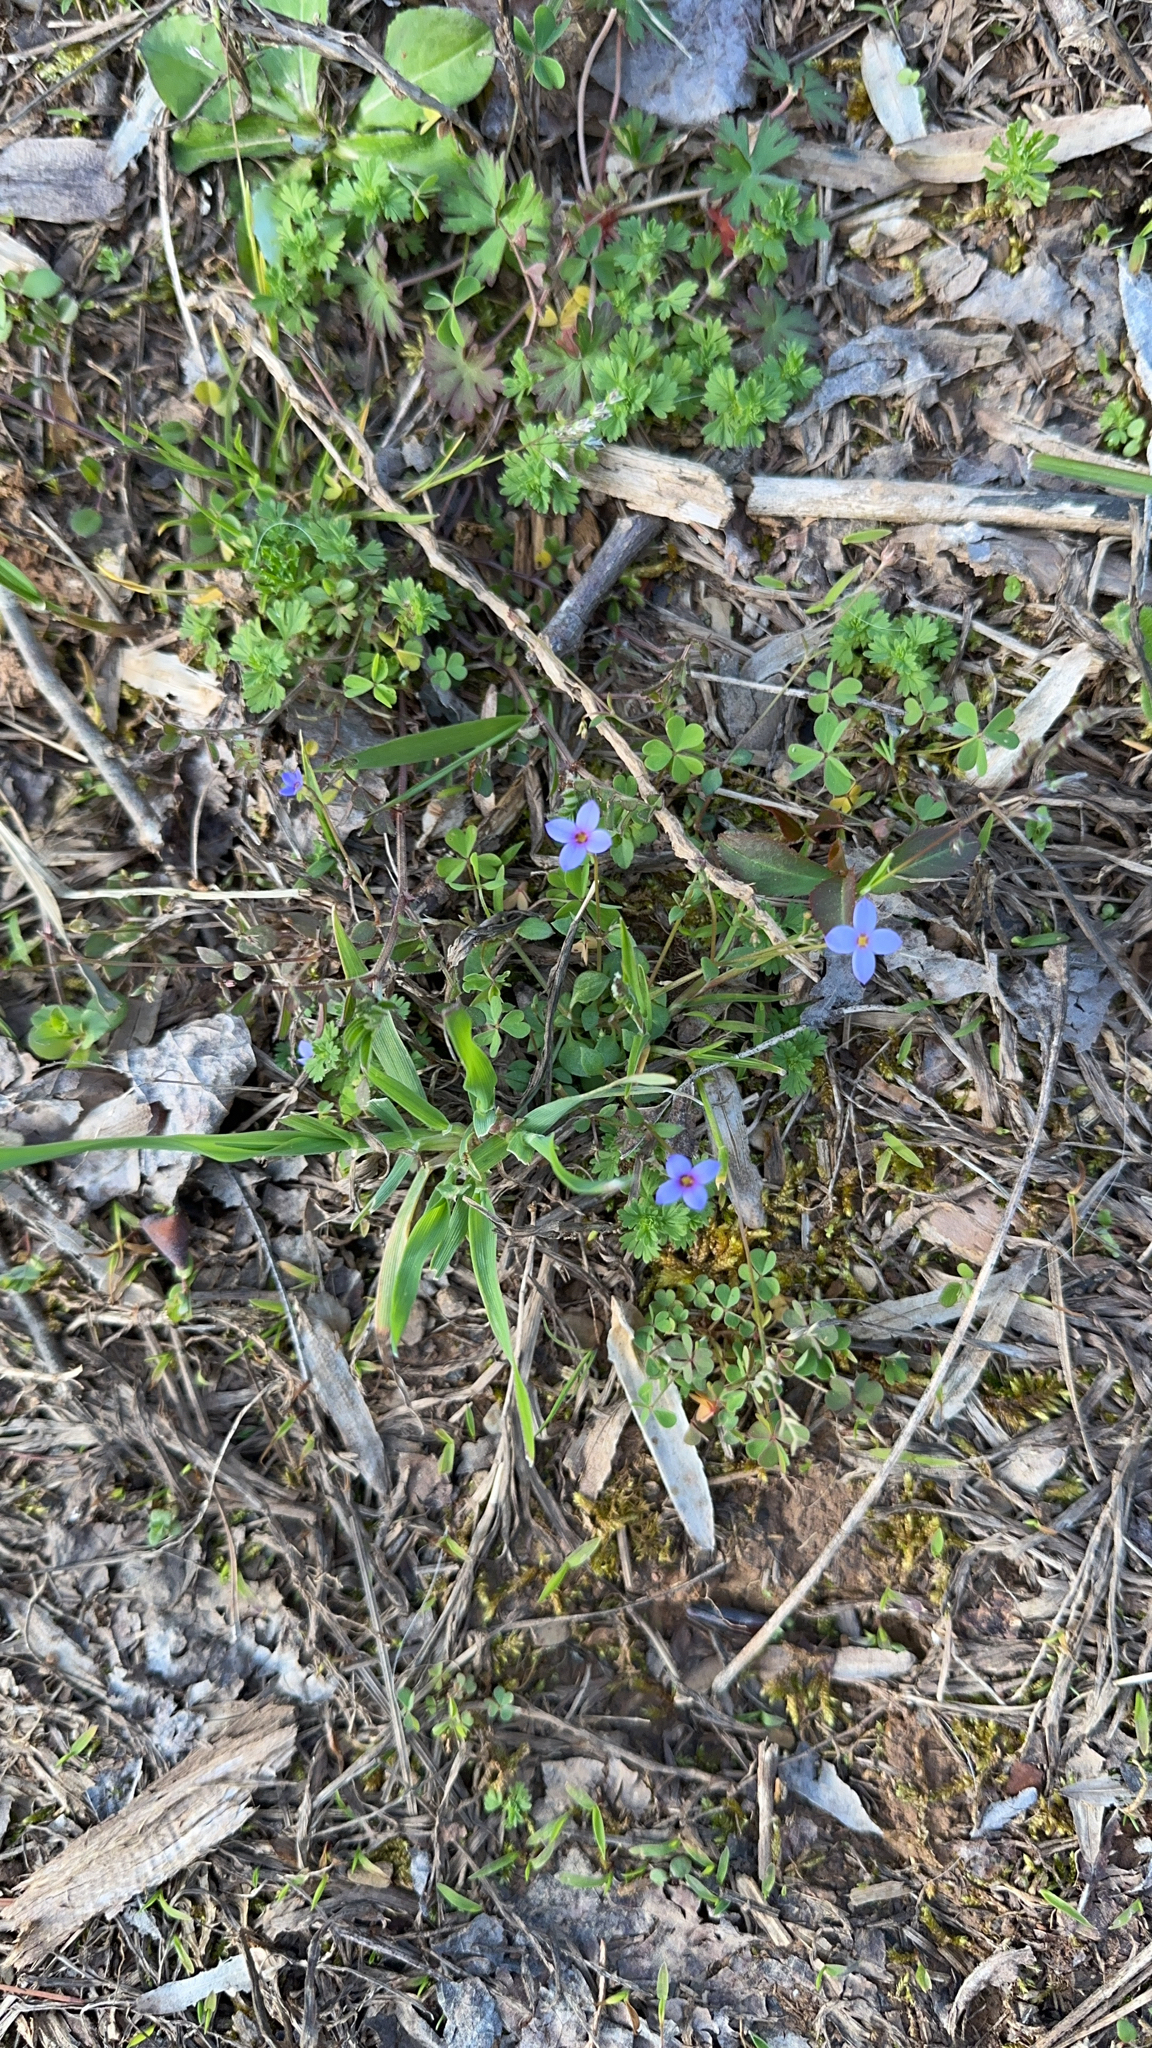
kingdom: Plantae
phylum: Tracheophyta
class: Magnoliopsida
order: Gentianales
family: Rubiaceae
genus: Houstonia
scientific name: Houstonia pusilla
